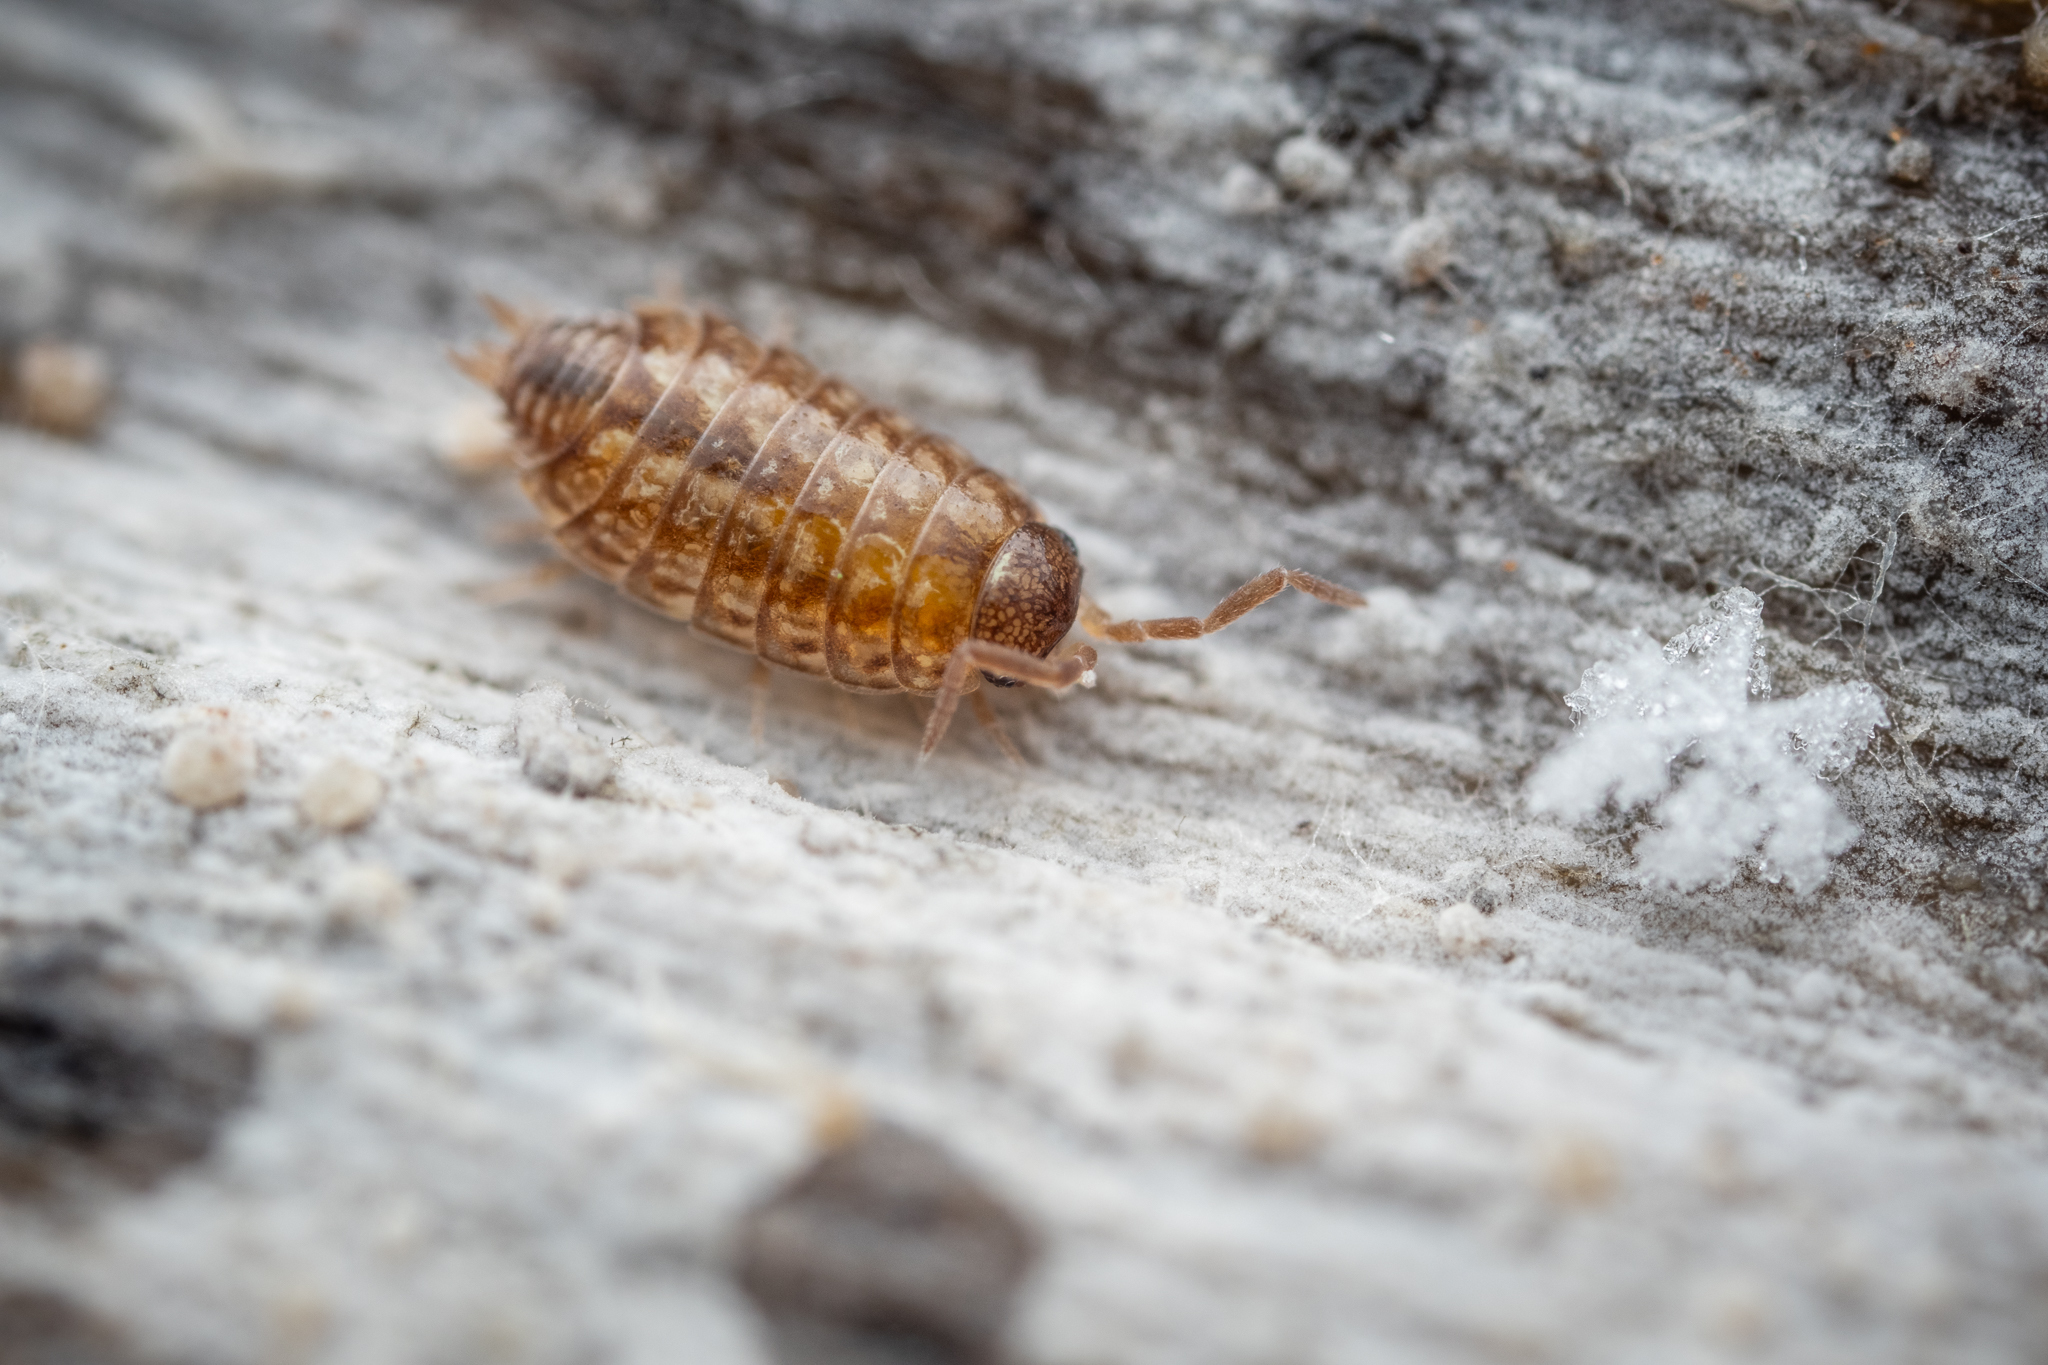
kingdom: Animalia
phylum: Arthropoda
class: Malacostraca
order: Isopoda
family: Philosciidae
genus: Philoscia
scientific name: Philoscia muscorum
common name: Common striped woodlouse
